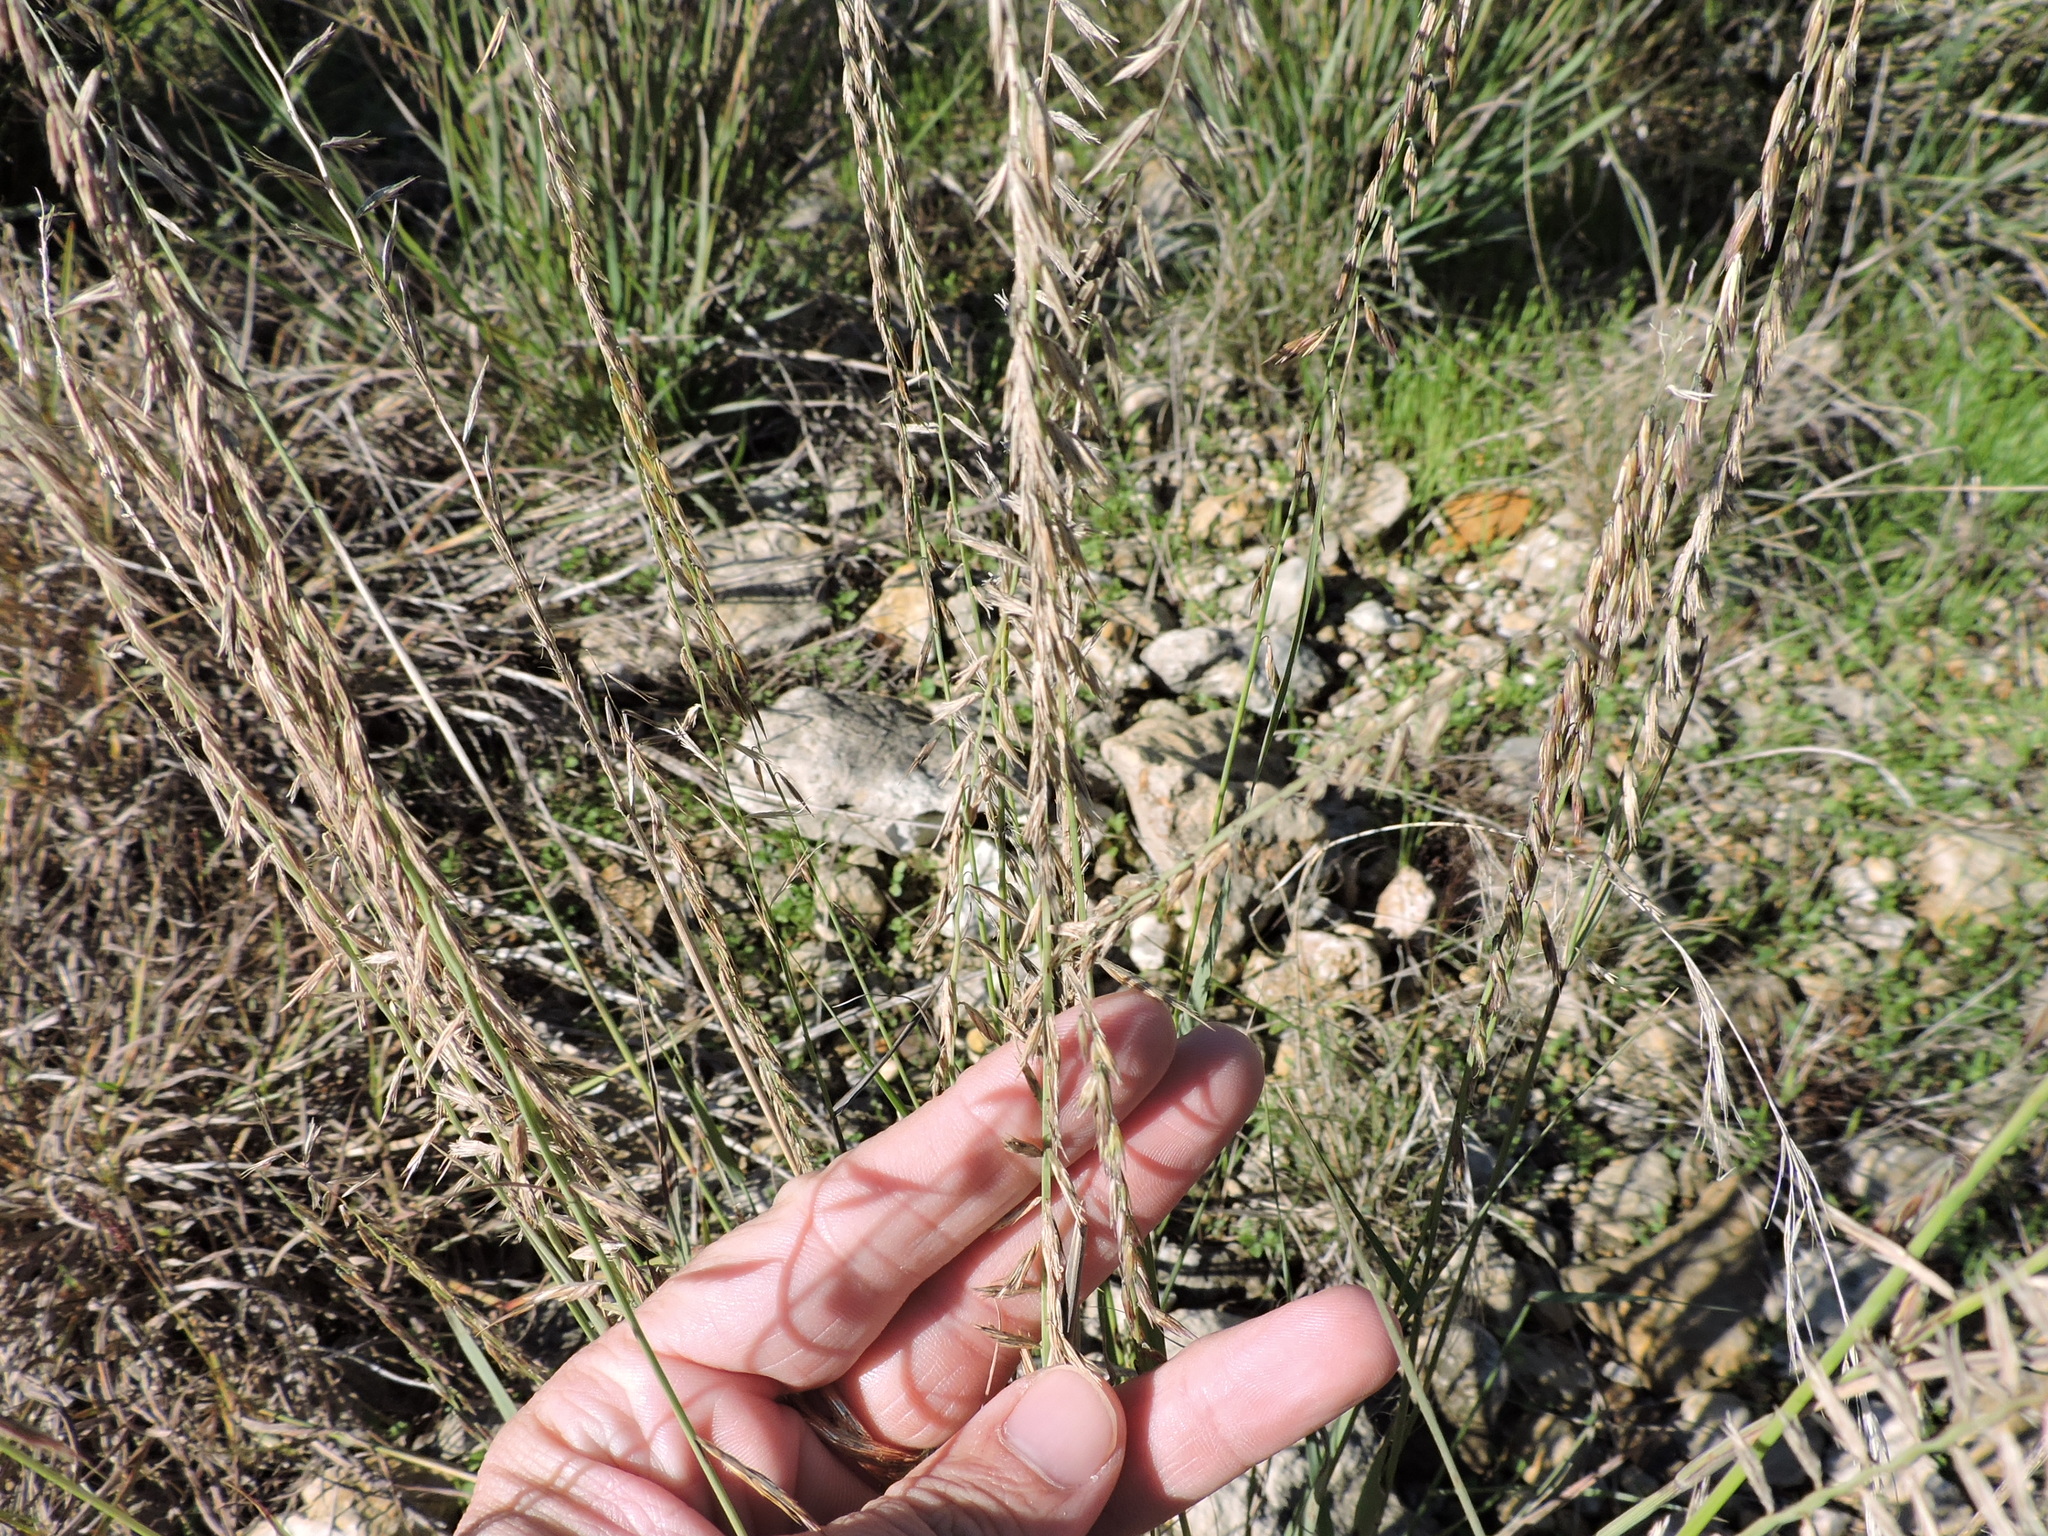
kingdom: Plantae
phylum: Tracheophyta
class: Liliopsida
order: Poales
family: Poaceae
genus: Bouteloua
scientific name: Bouteloua curtipendula
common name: Side-oats grama
